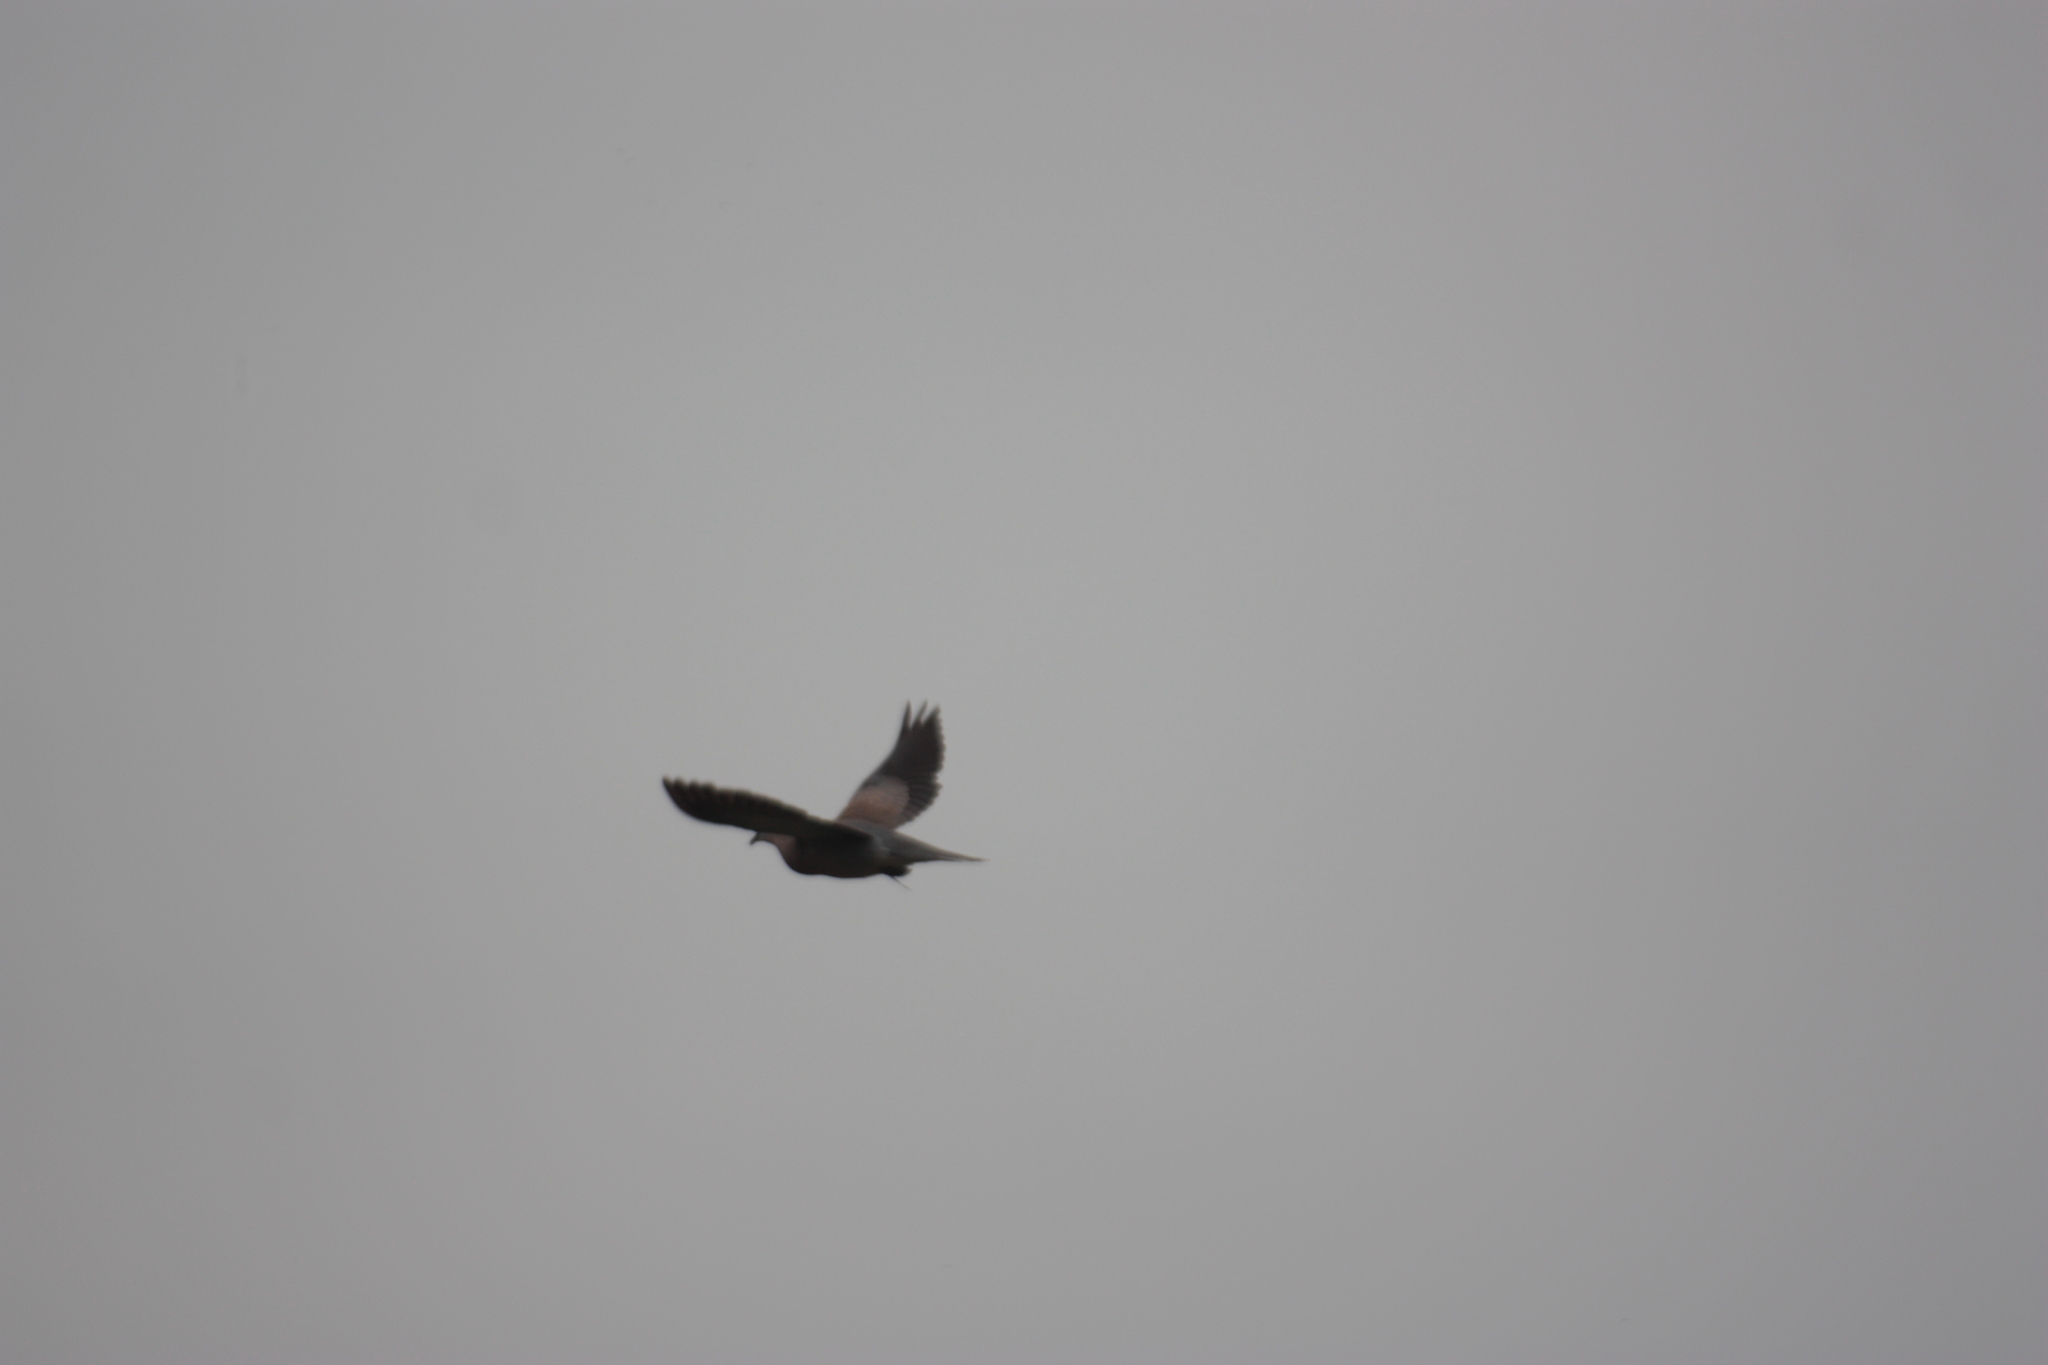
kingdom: Animalia
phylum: Chordata
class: Aves
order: Columbiformes
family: Columbidae
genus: Spilopelia
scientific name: Spilopelia chinensis
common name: Spotted dove
